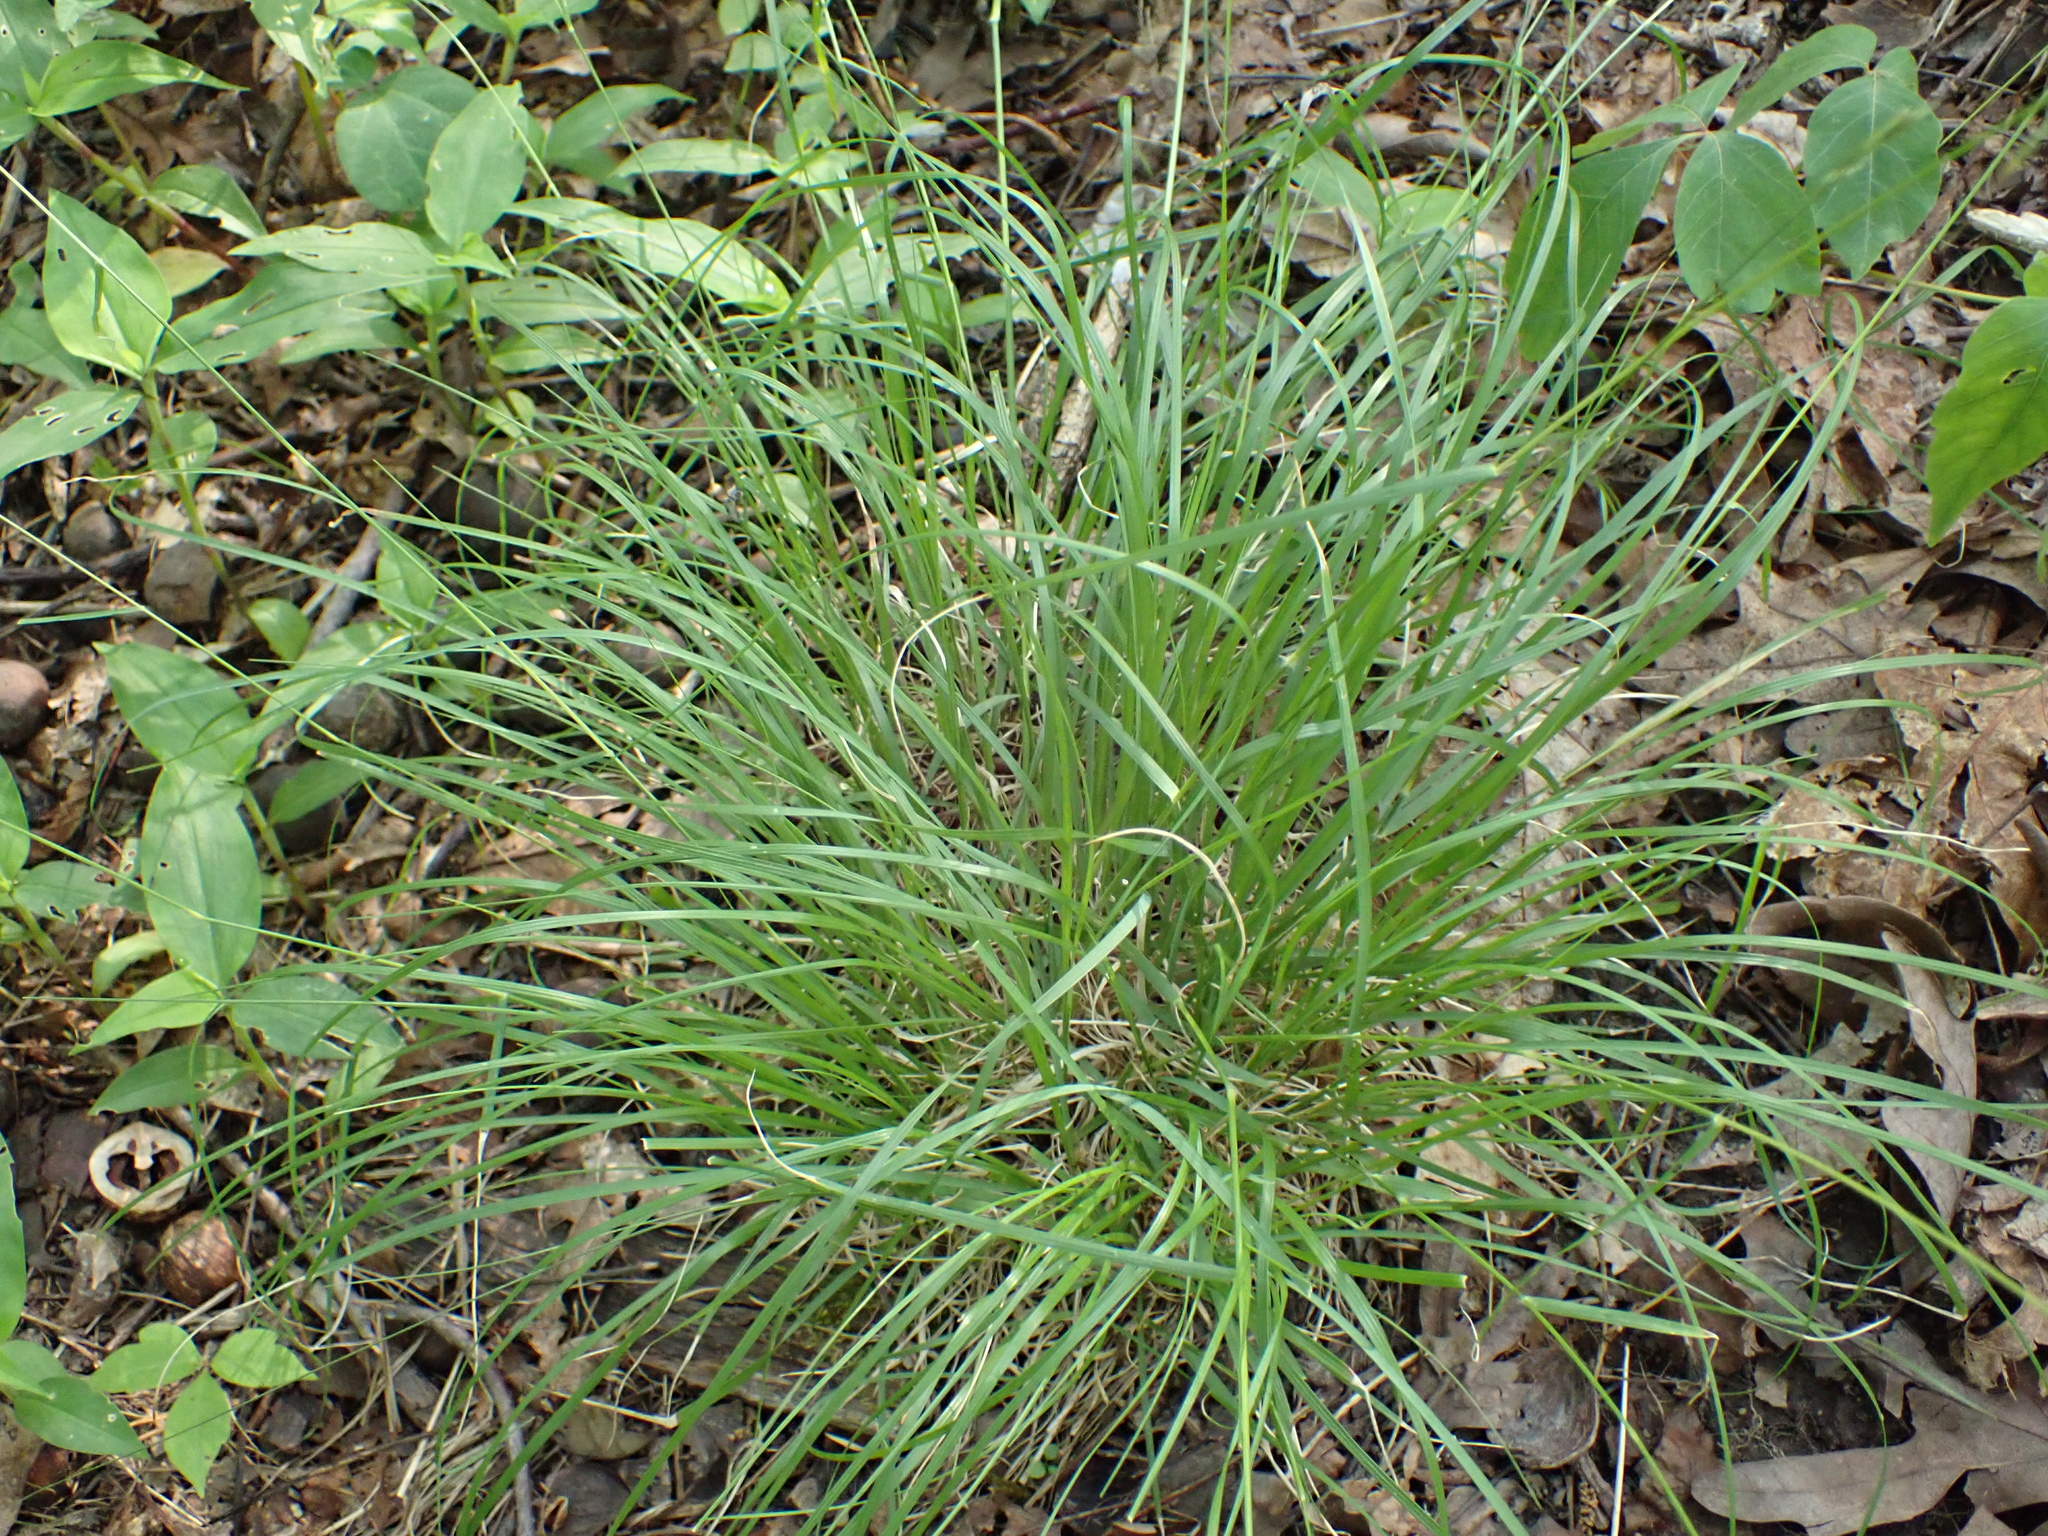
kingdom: Plantae
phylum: Tracheophyta
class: Liliopsida
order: Poales
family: Poaceae
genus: Danthonia
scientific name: Danthonia spicata
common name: Common wild oatgrass
